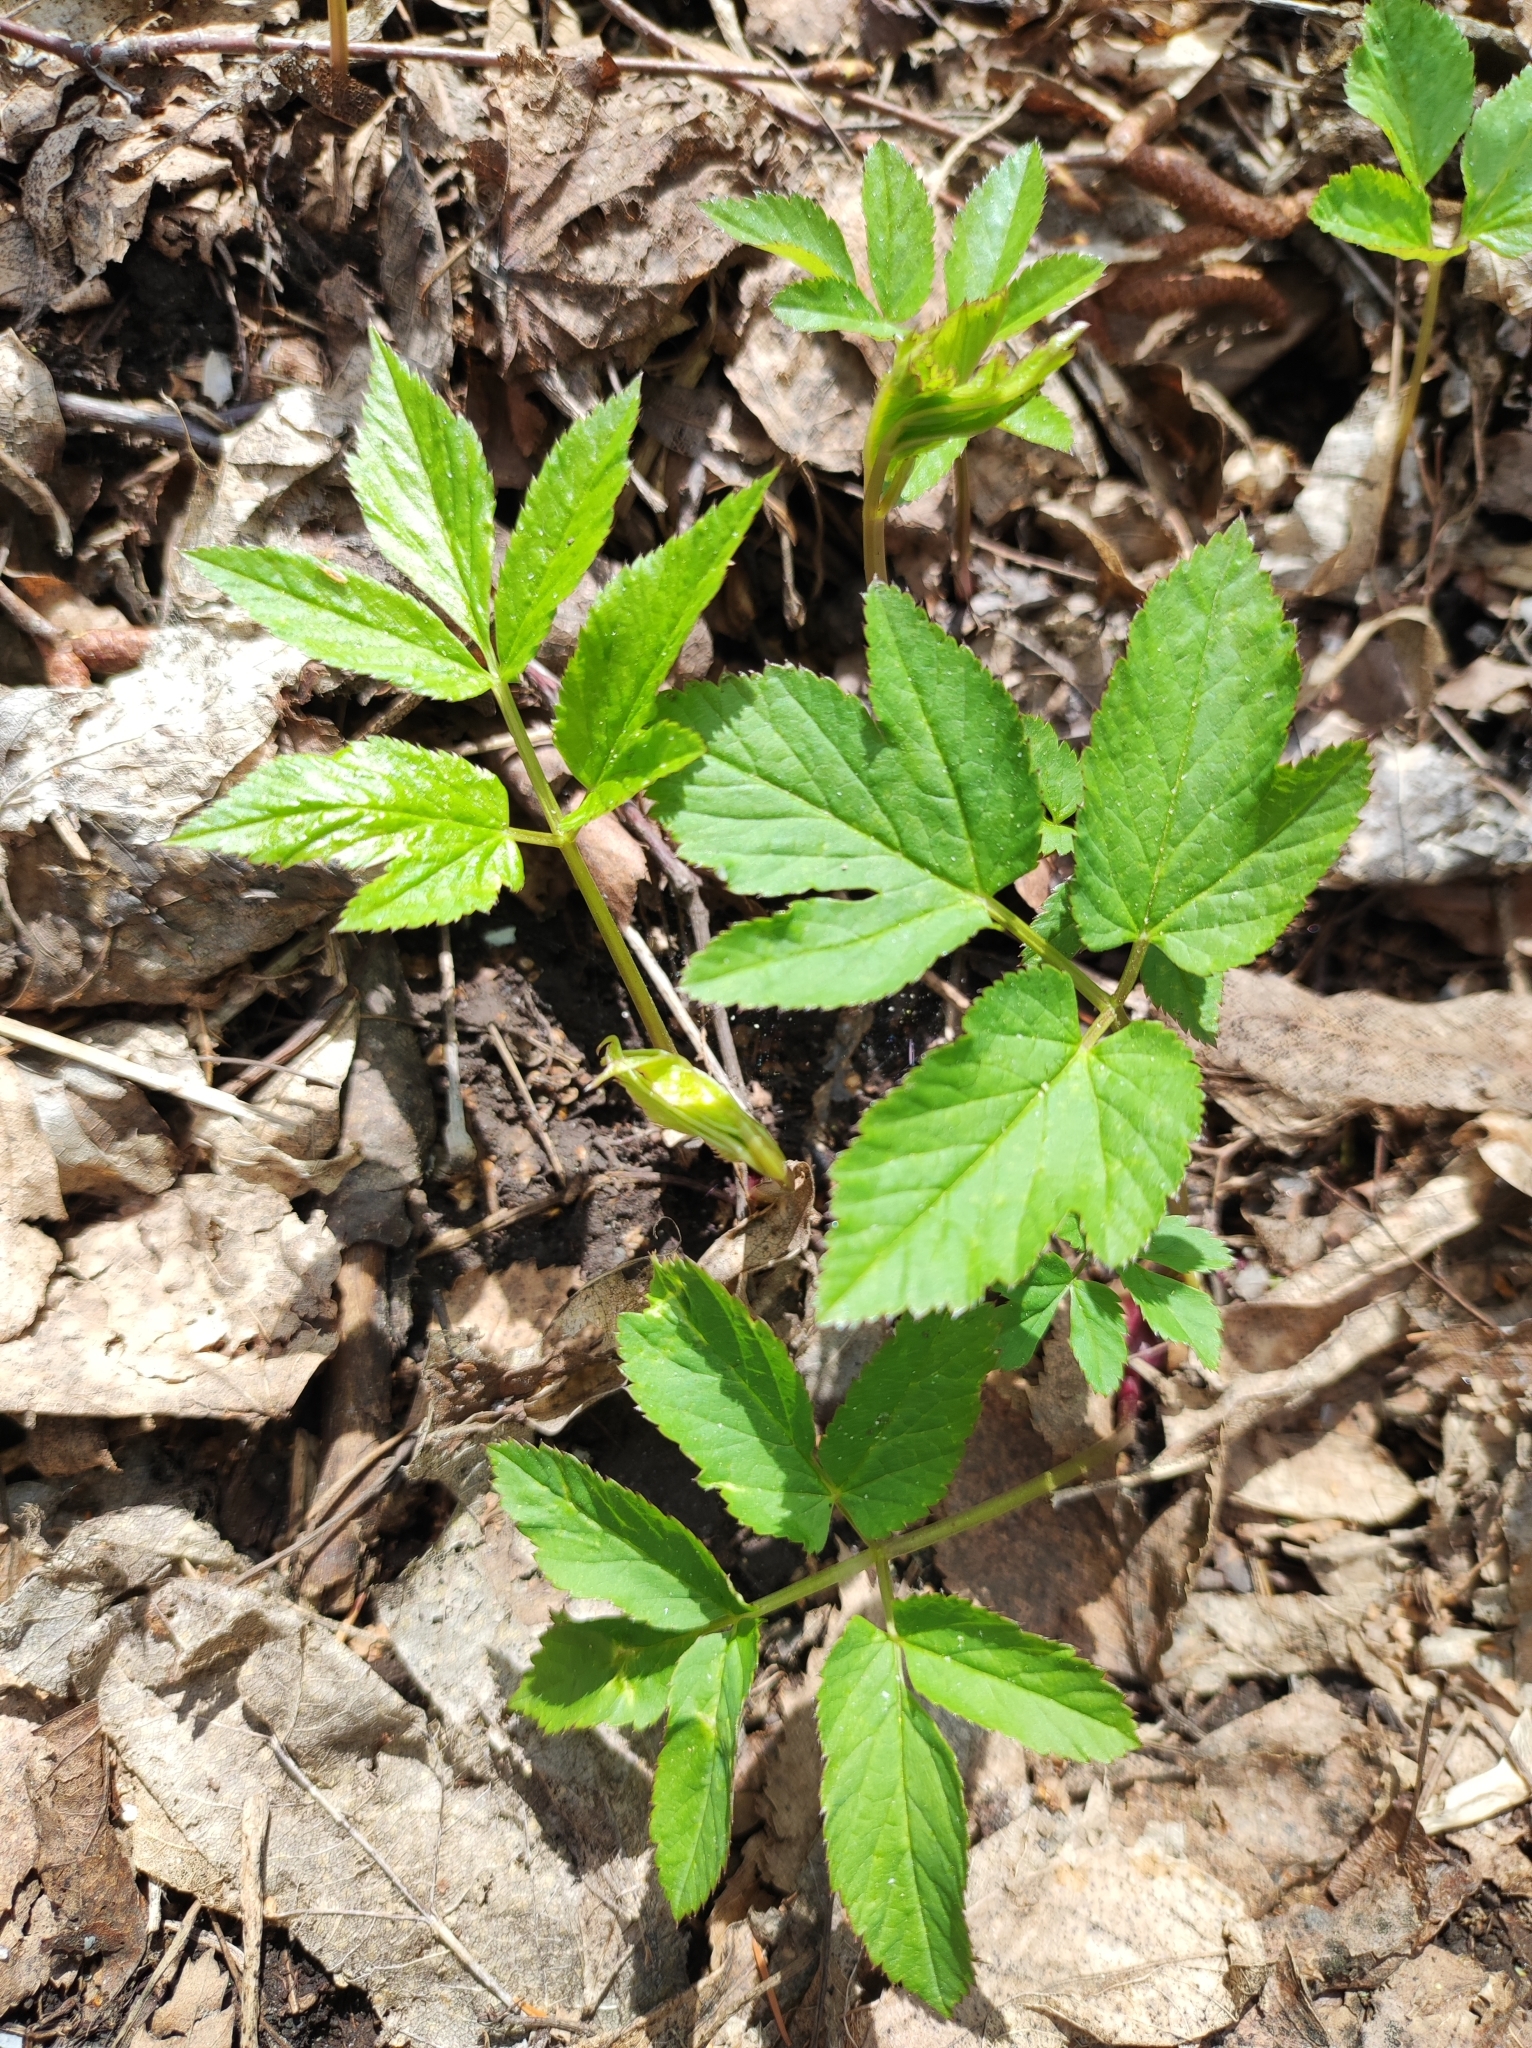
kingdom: Plantae
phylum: Tracheophyta
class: Magnoliopsida
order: Apiales
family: Apiaceae
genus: Aegopodium
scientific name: Aegopodium podagraria
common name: Ground-elder
